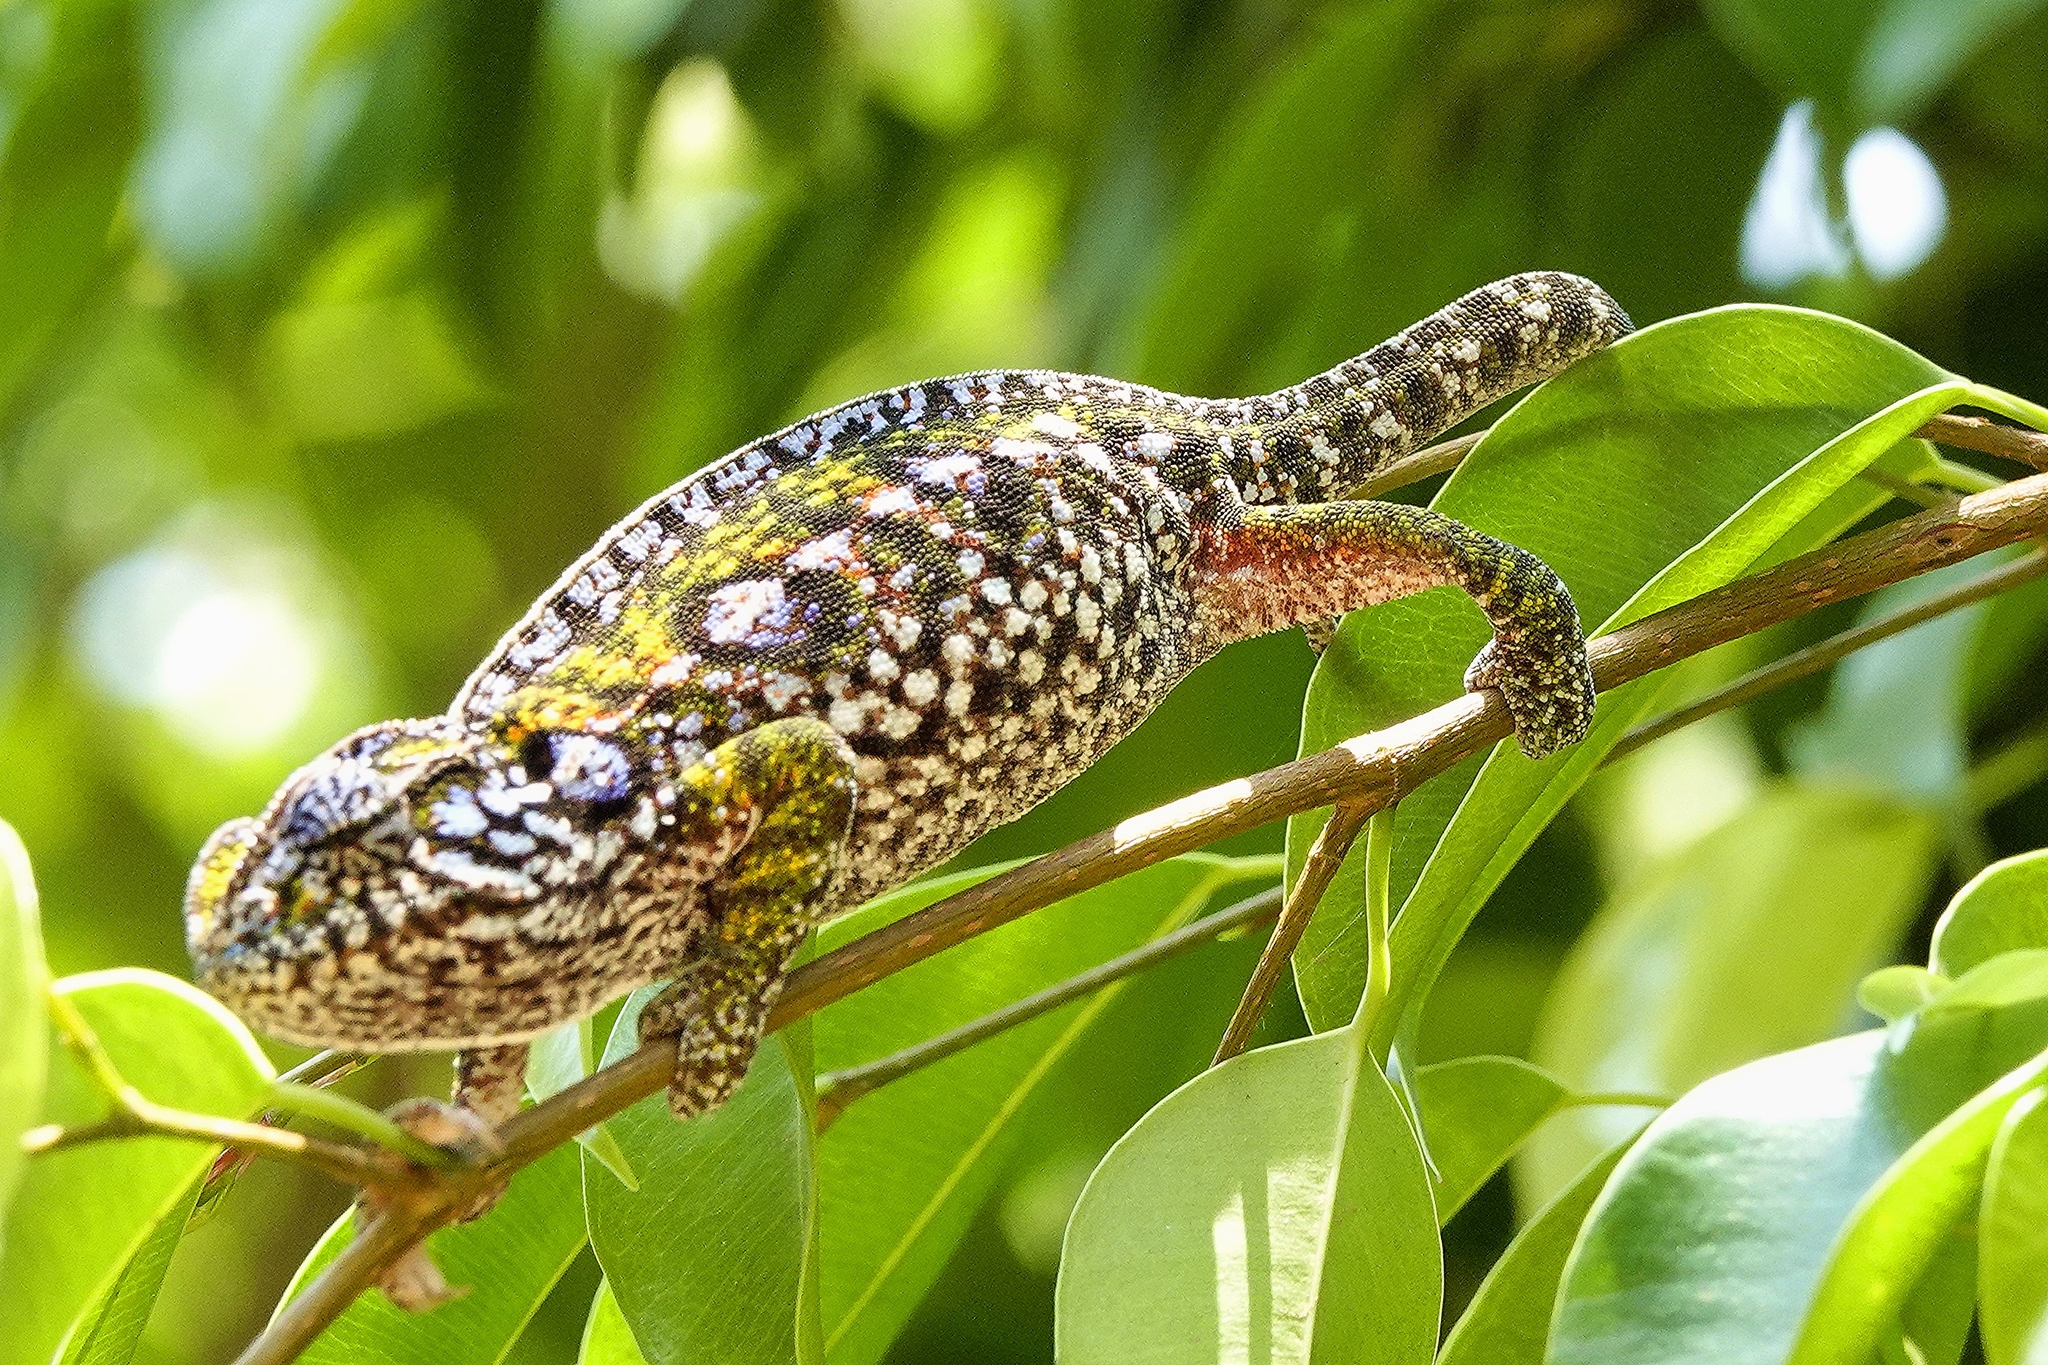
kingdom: Animalia
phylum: Chordata
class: Squamata
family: Chamaeleonidae
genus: Furcifer
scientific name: Furcifer lateralis
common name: Carpet chameleon
